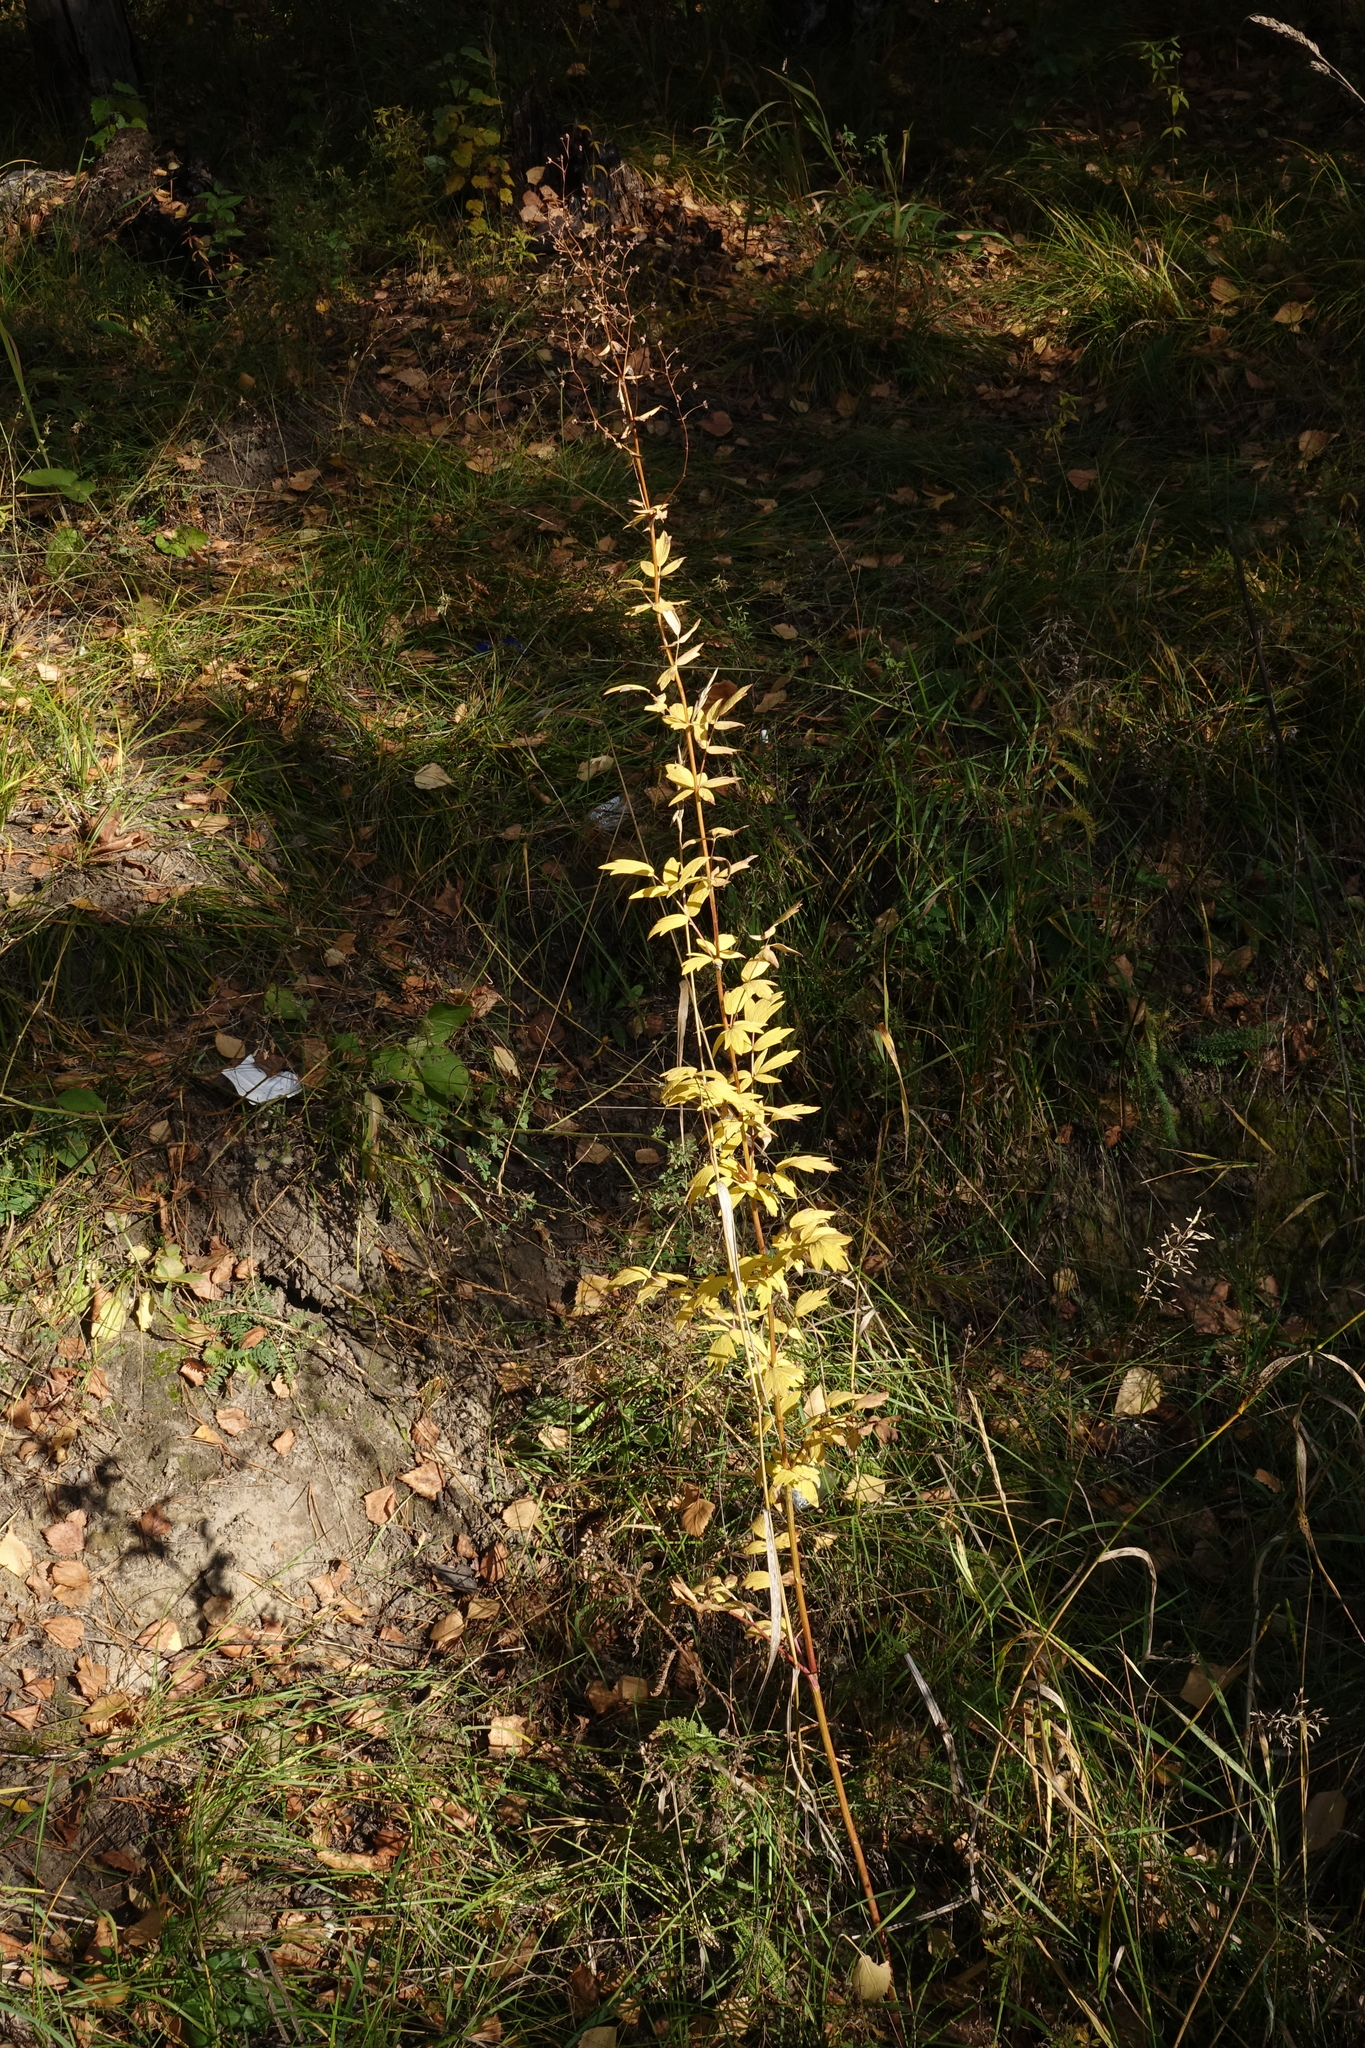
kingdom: Plantae
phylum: Tracheophyta
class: Magnoliopsida
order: Ranunculales
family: Ranunculaceae
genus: Thalictrum
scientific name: Thalictrum simplex
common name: Small meadow-rue
